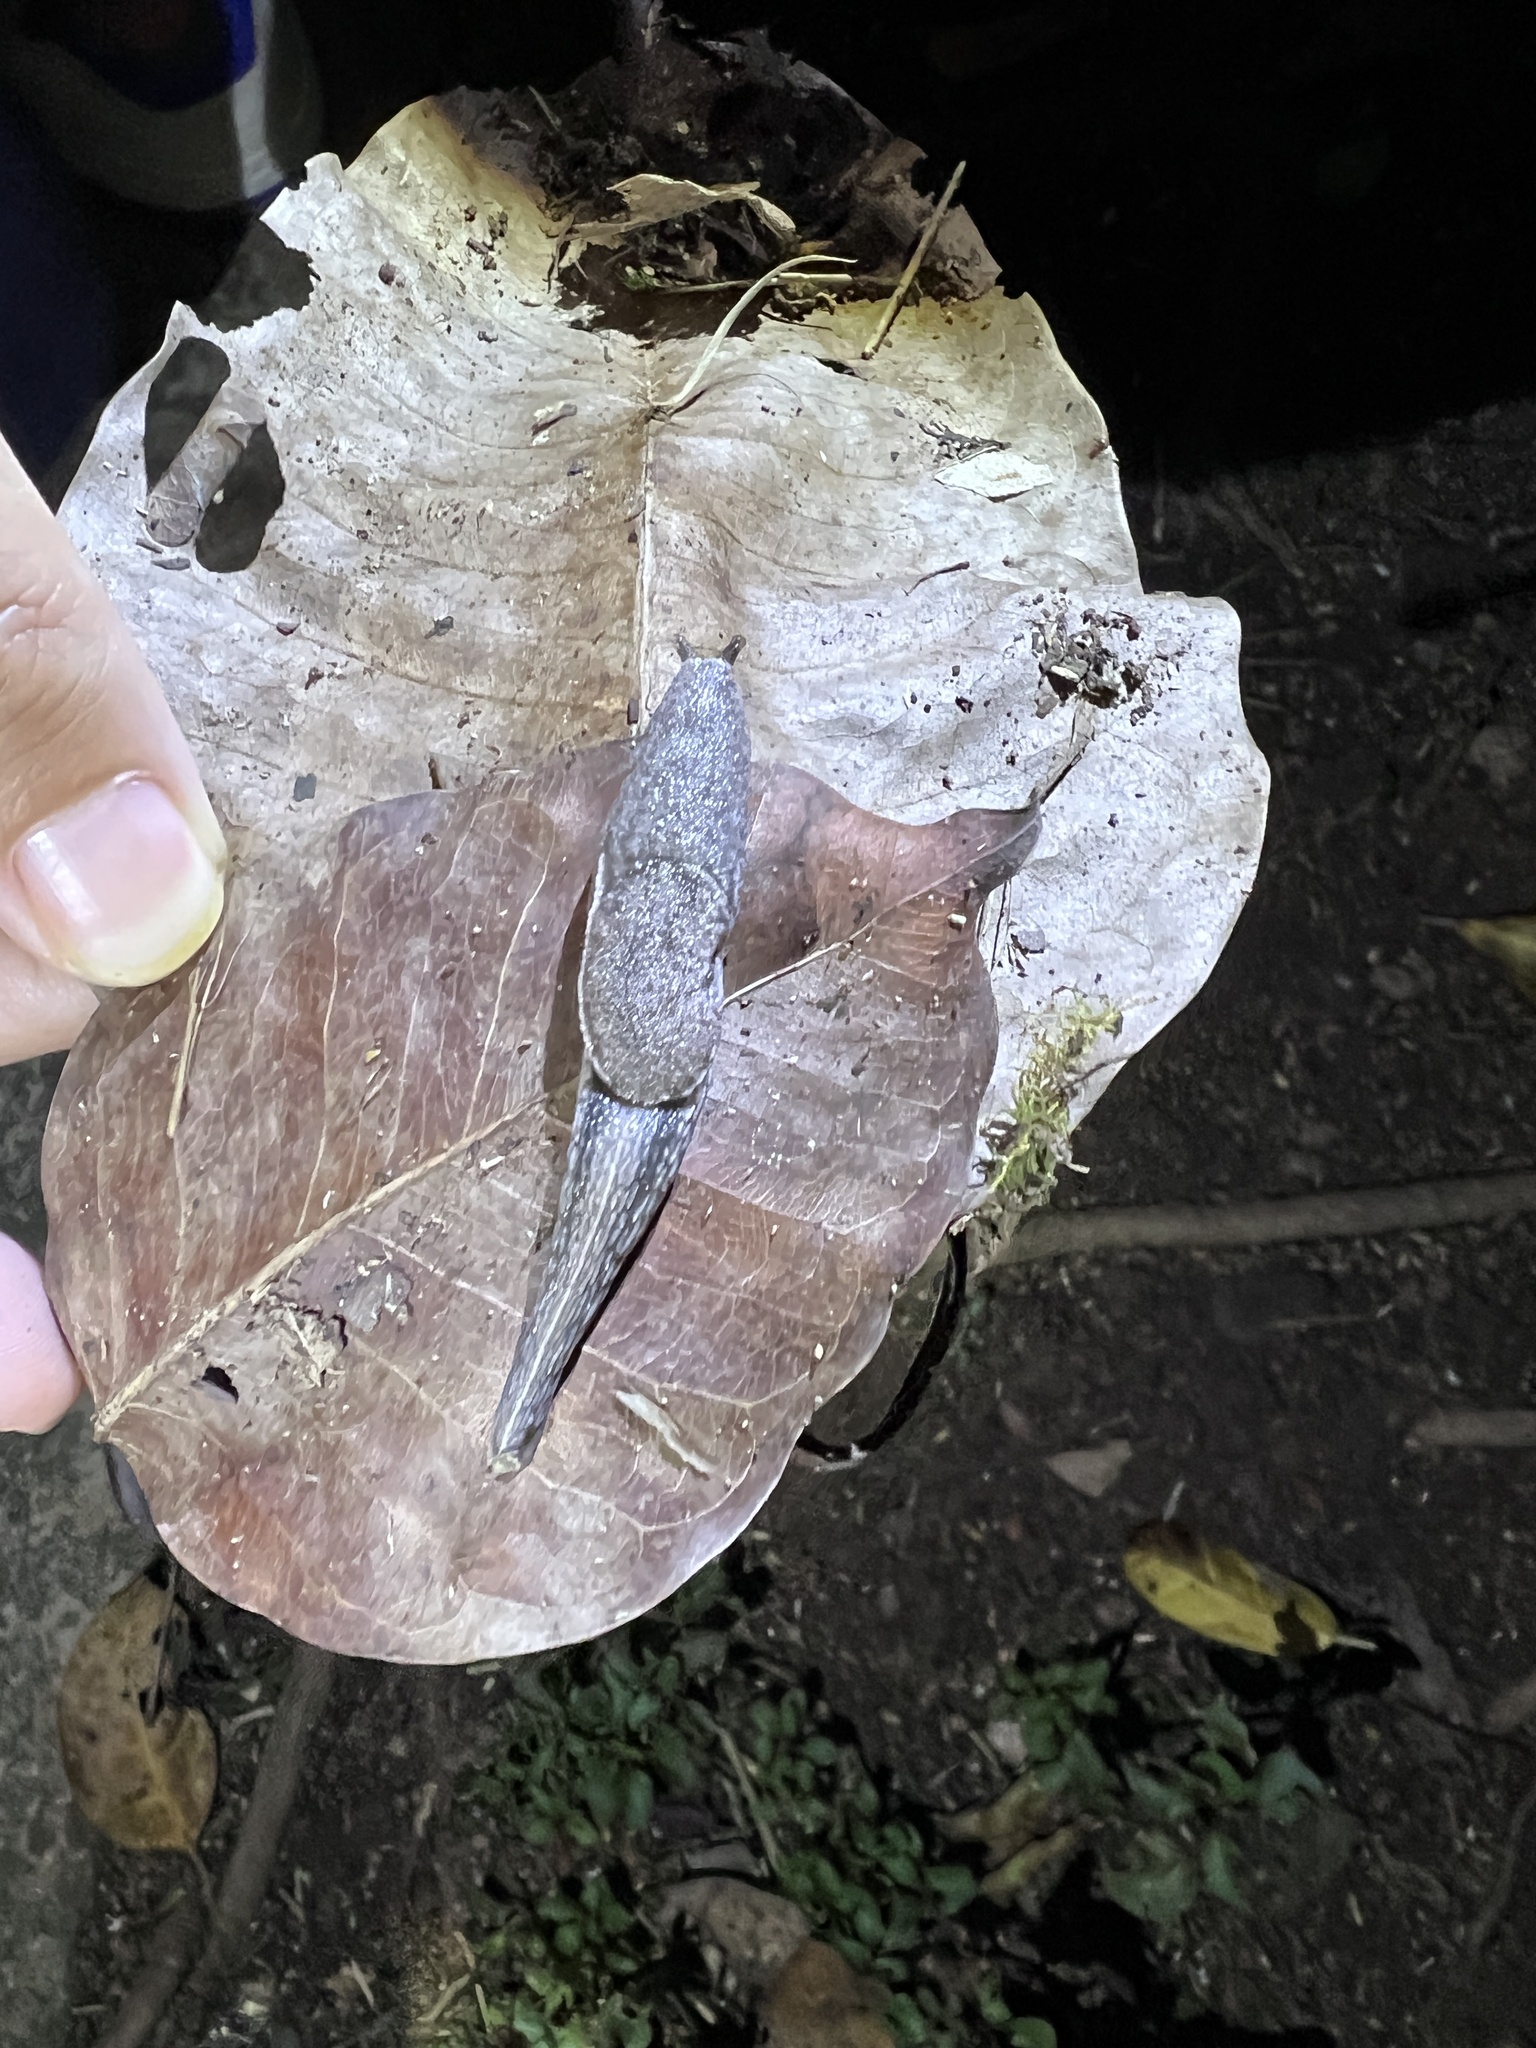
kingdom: Animalia
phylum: Mollusca
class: Gastropoda
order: Stylommatophora
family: Ariophantidae
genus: Parmarion
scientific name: Parmarion martensi
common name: Semi-slug
